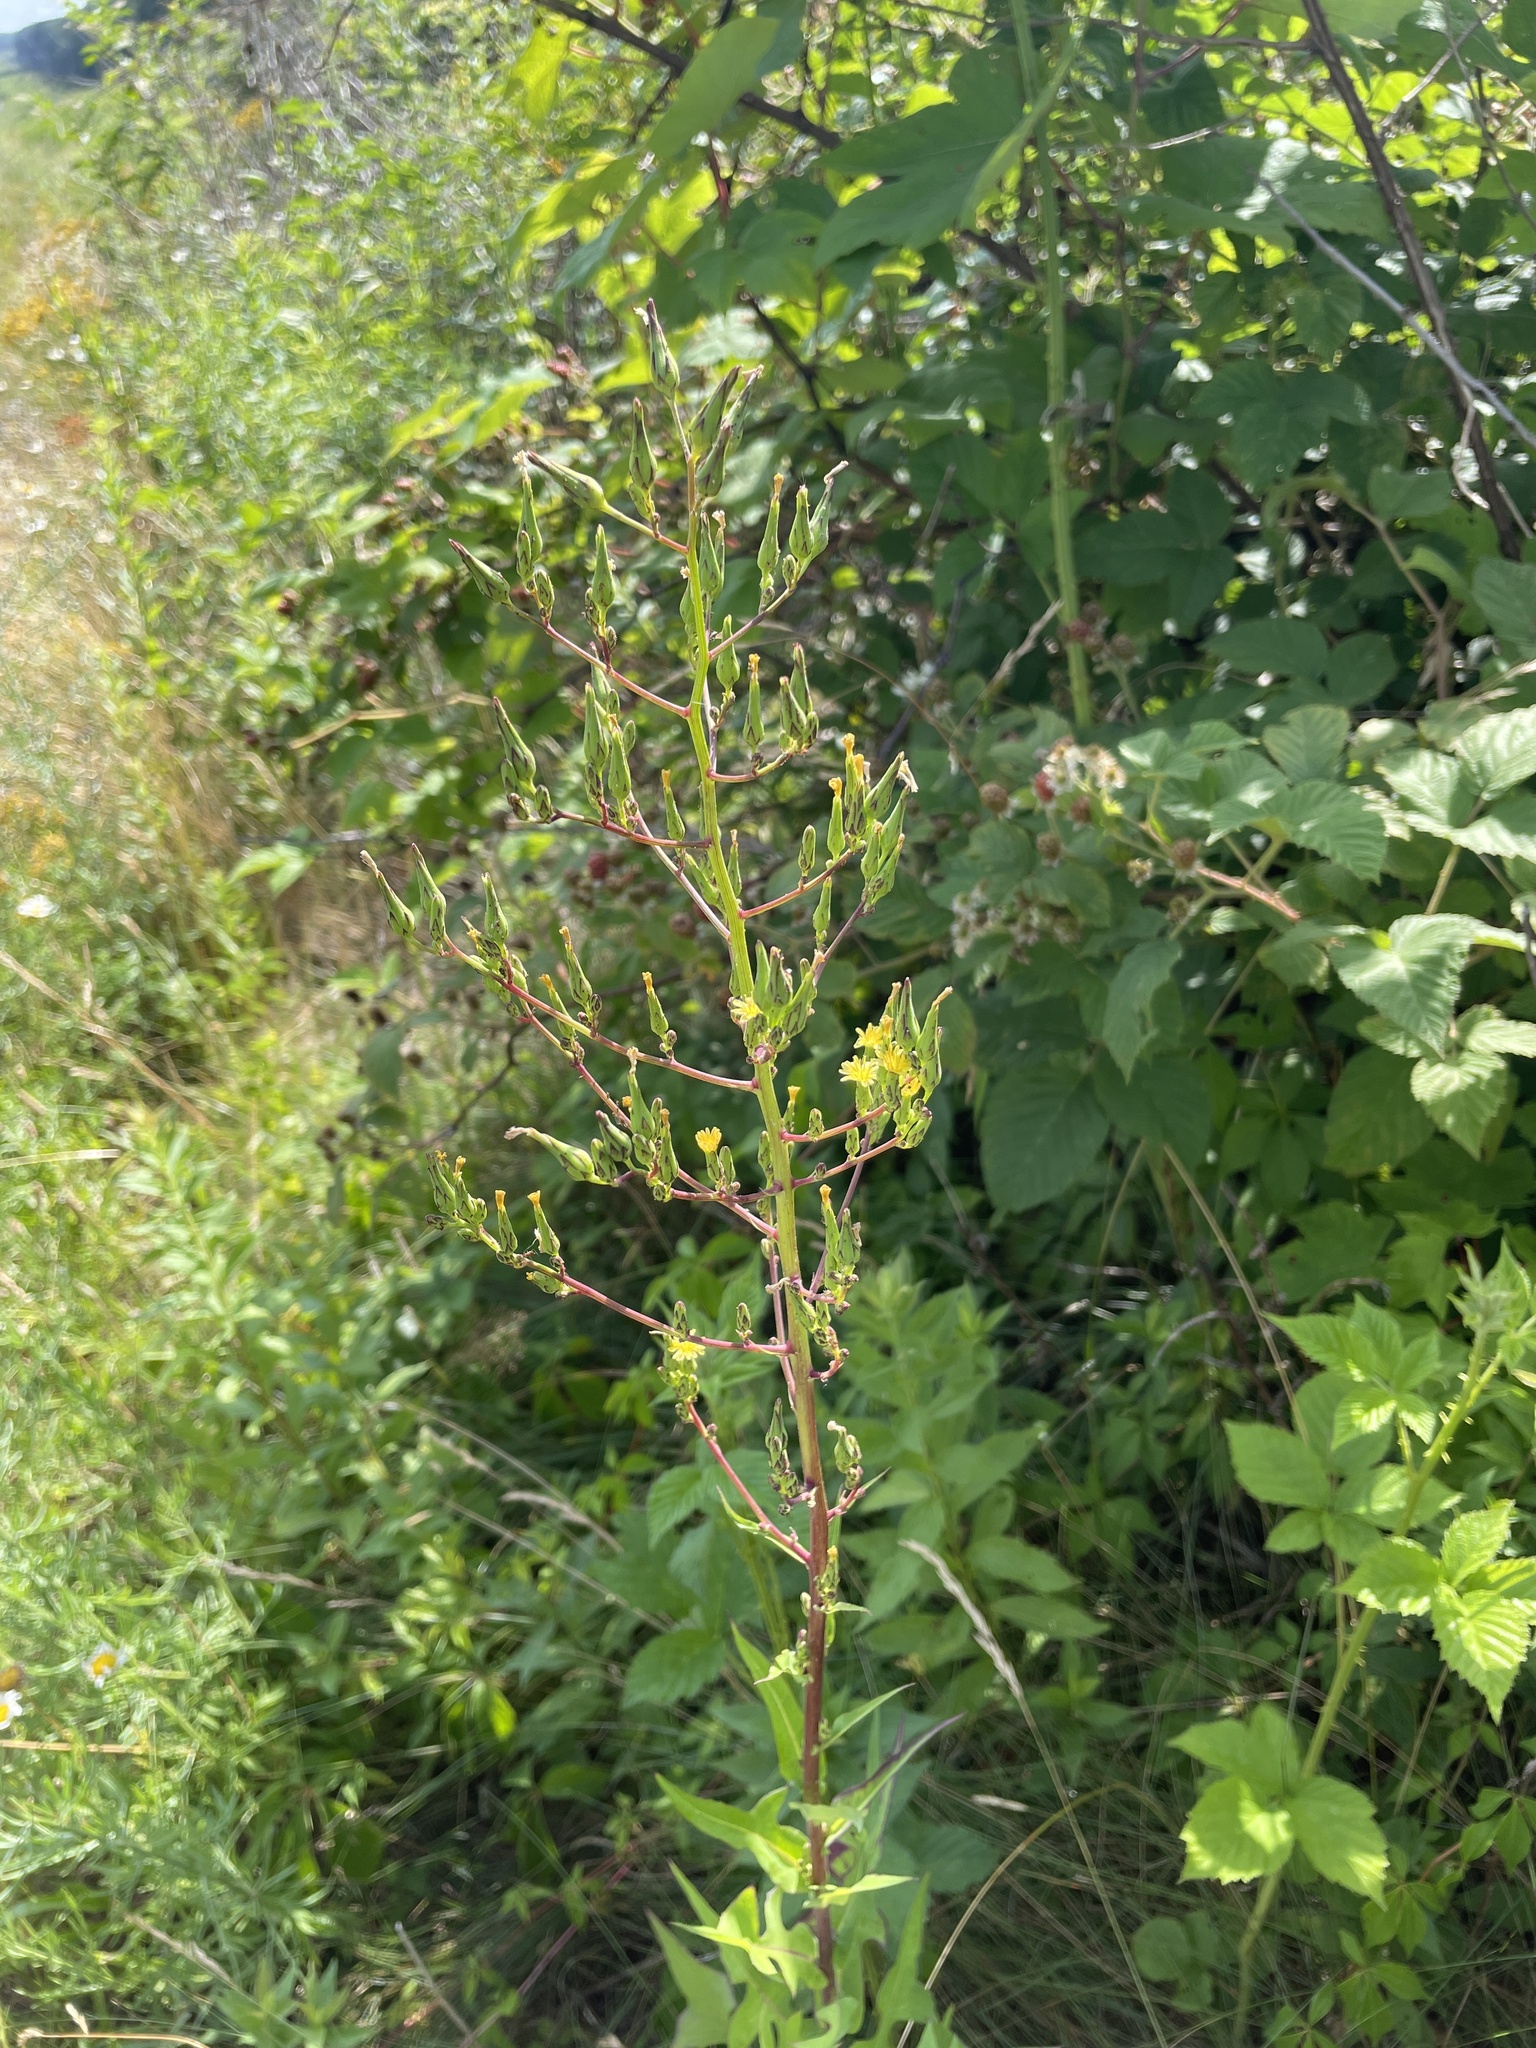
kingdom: Plantae
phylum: Tracheophyta
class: Magnoliopsida
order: Asterales
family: Asteraceae
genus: Lactuca
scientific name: Lactuca canadensis
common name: Canada lettuce
